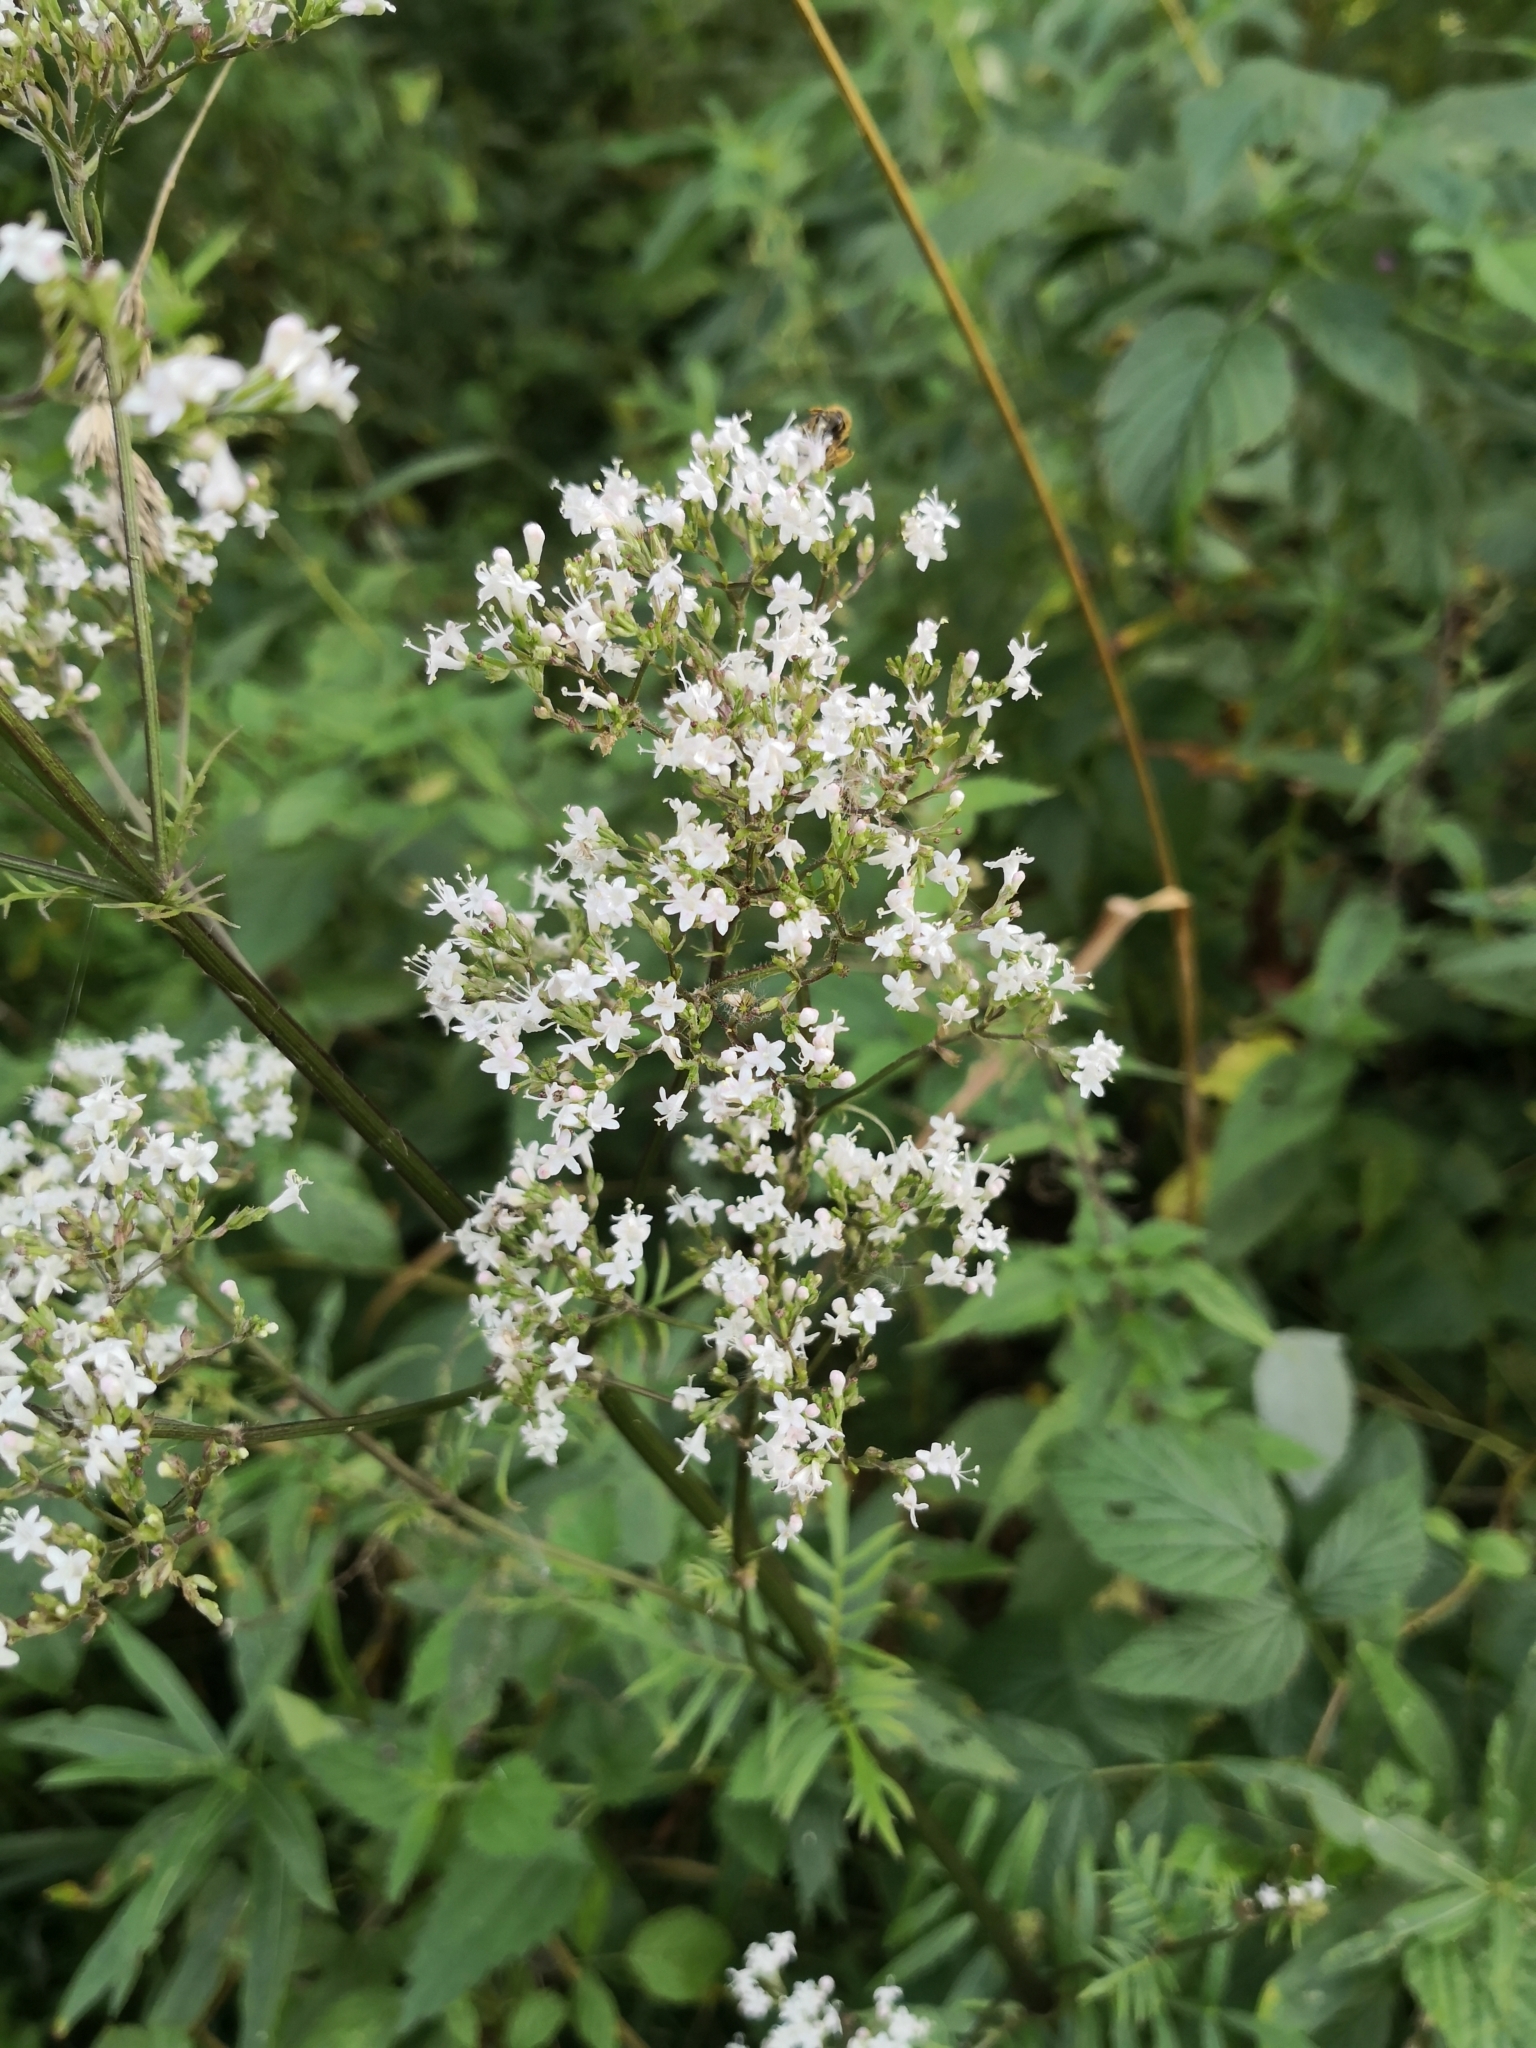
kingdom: Plantae
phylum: Tracheophyta
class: Magnoliopsida
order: Dipsacales
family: Caprifoliaceae
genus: Valeriana
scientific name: Valeriana officinalis
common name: Common valerian
